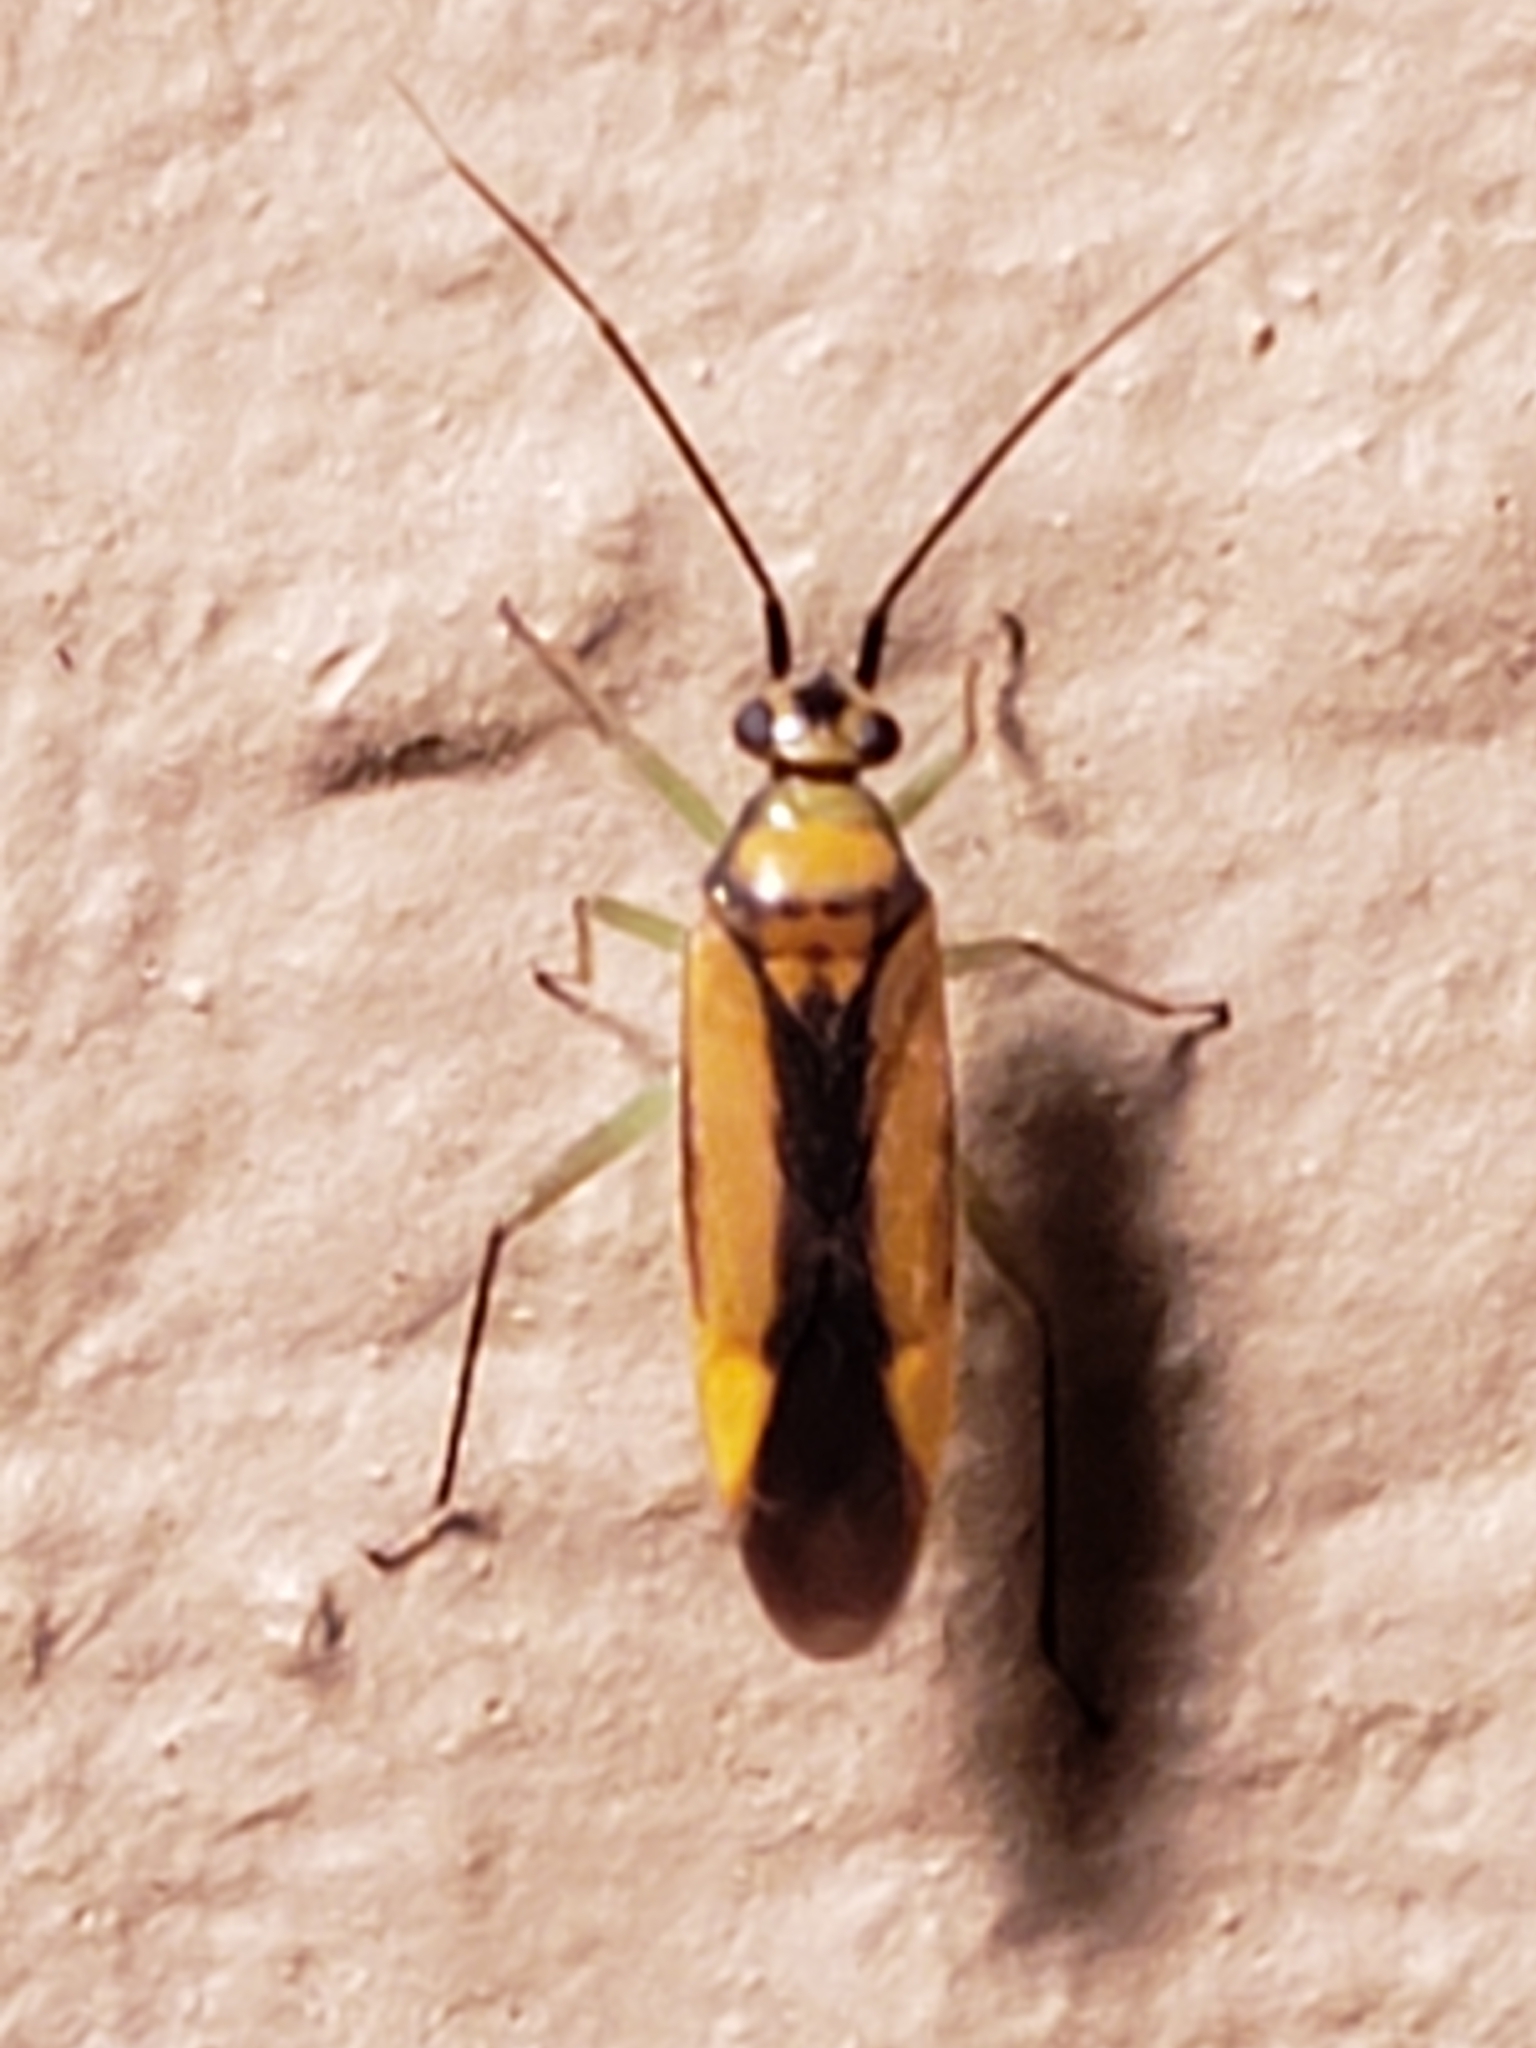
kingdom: Animalia
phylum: Arthropoda
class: Insecta
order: Hemiptera
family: Miridae
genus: Orthotylus
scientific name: Orthotylus submarginatus
